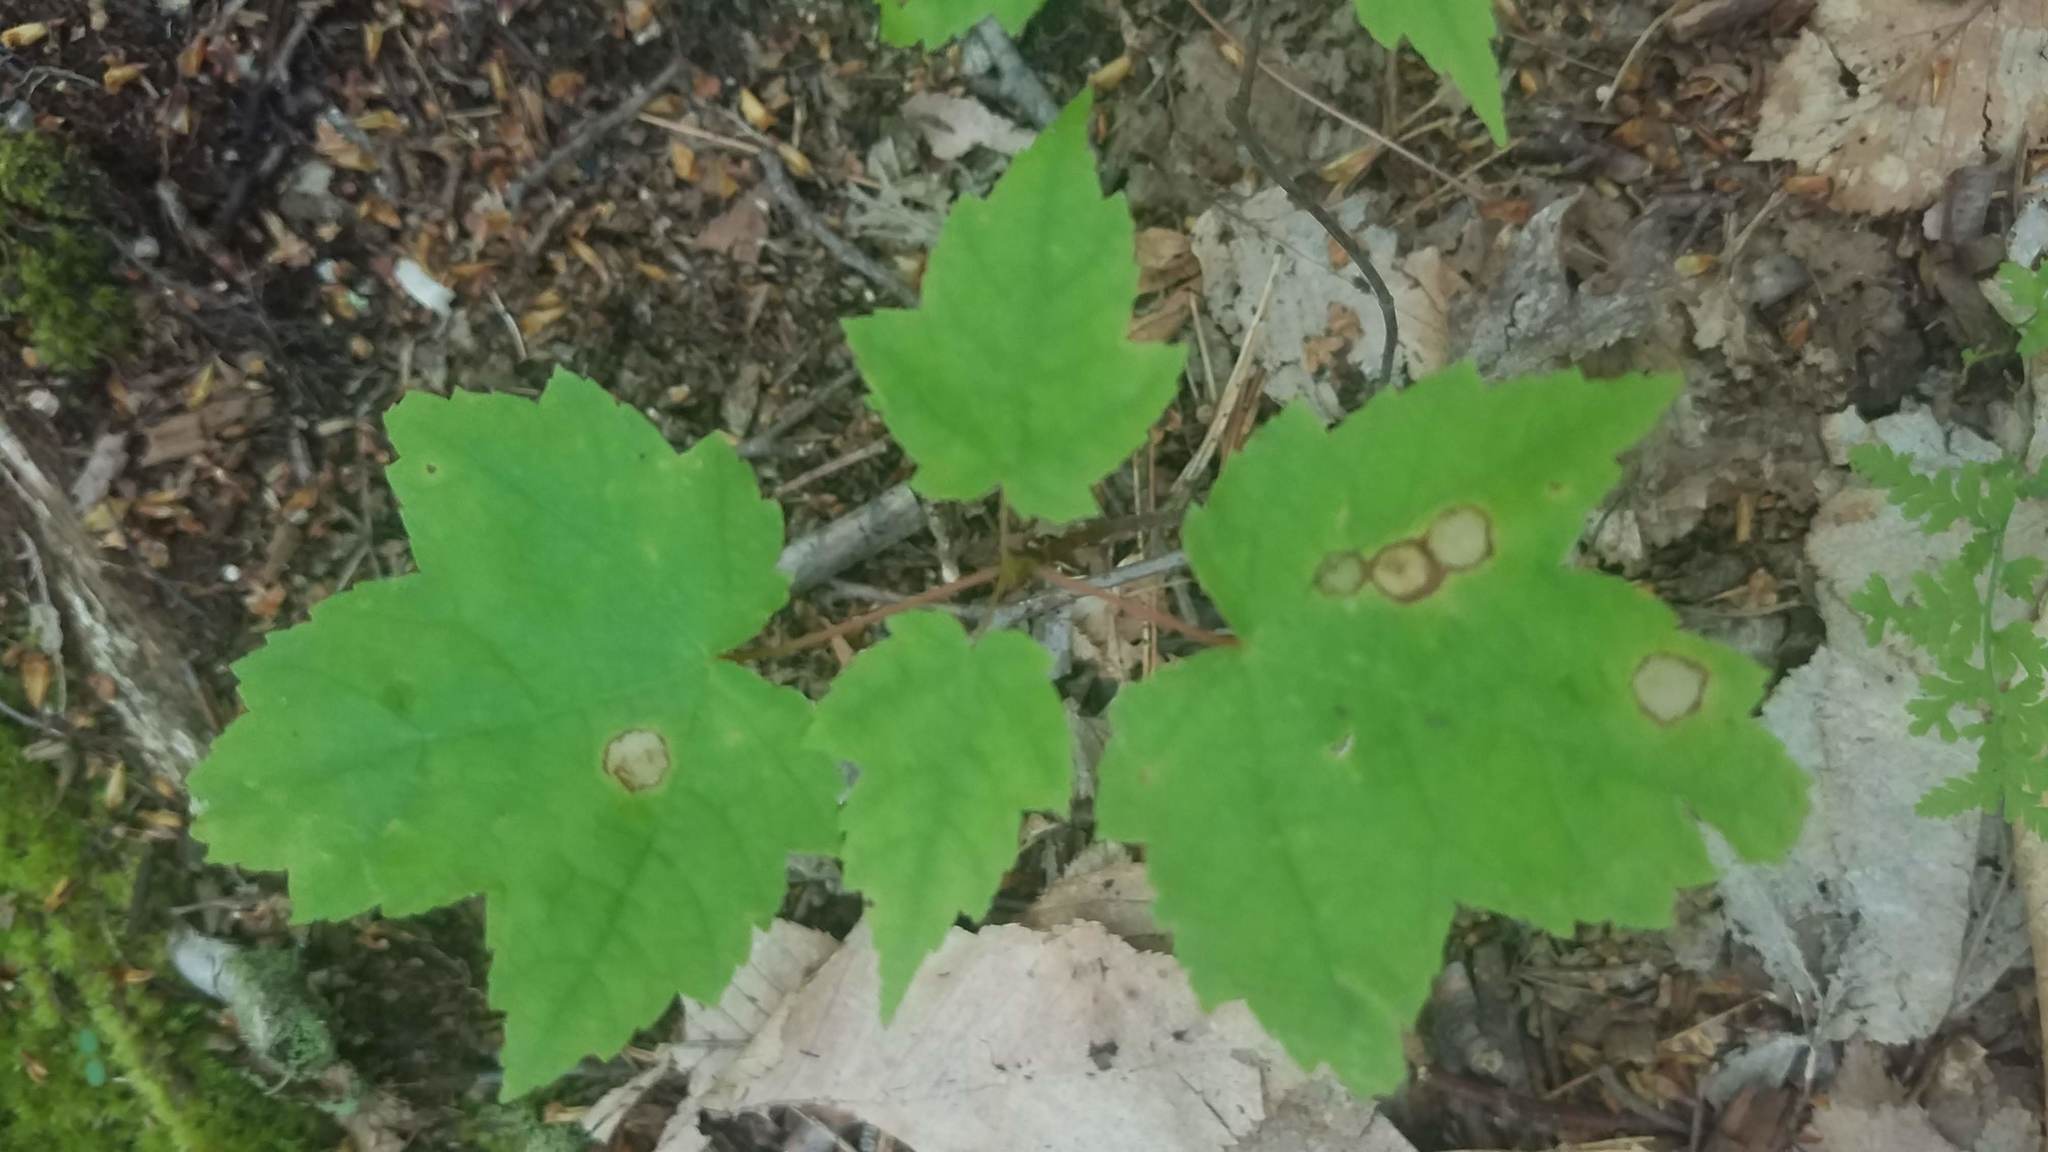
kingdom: Plantae
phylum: Tracheophyta
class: Magnoliopsida
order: Sapindales
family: Sapindaceae
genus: Acer
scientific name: Acer rubrum
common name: Red maple
